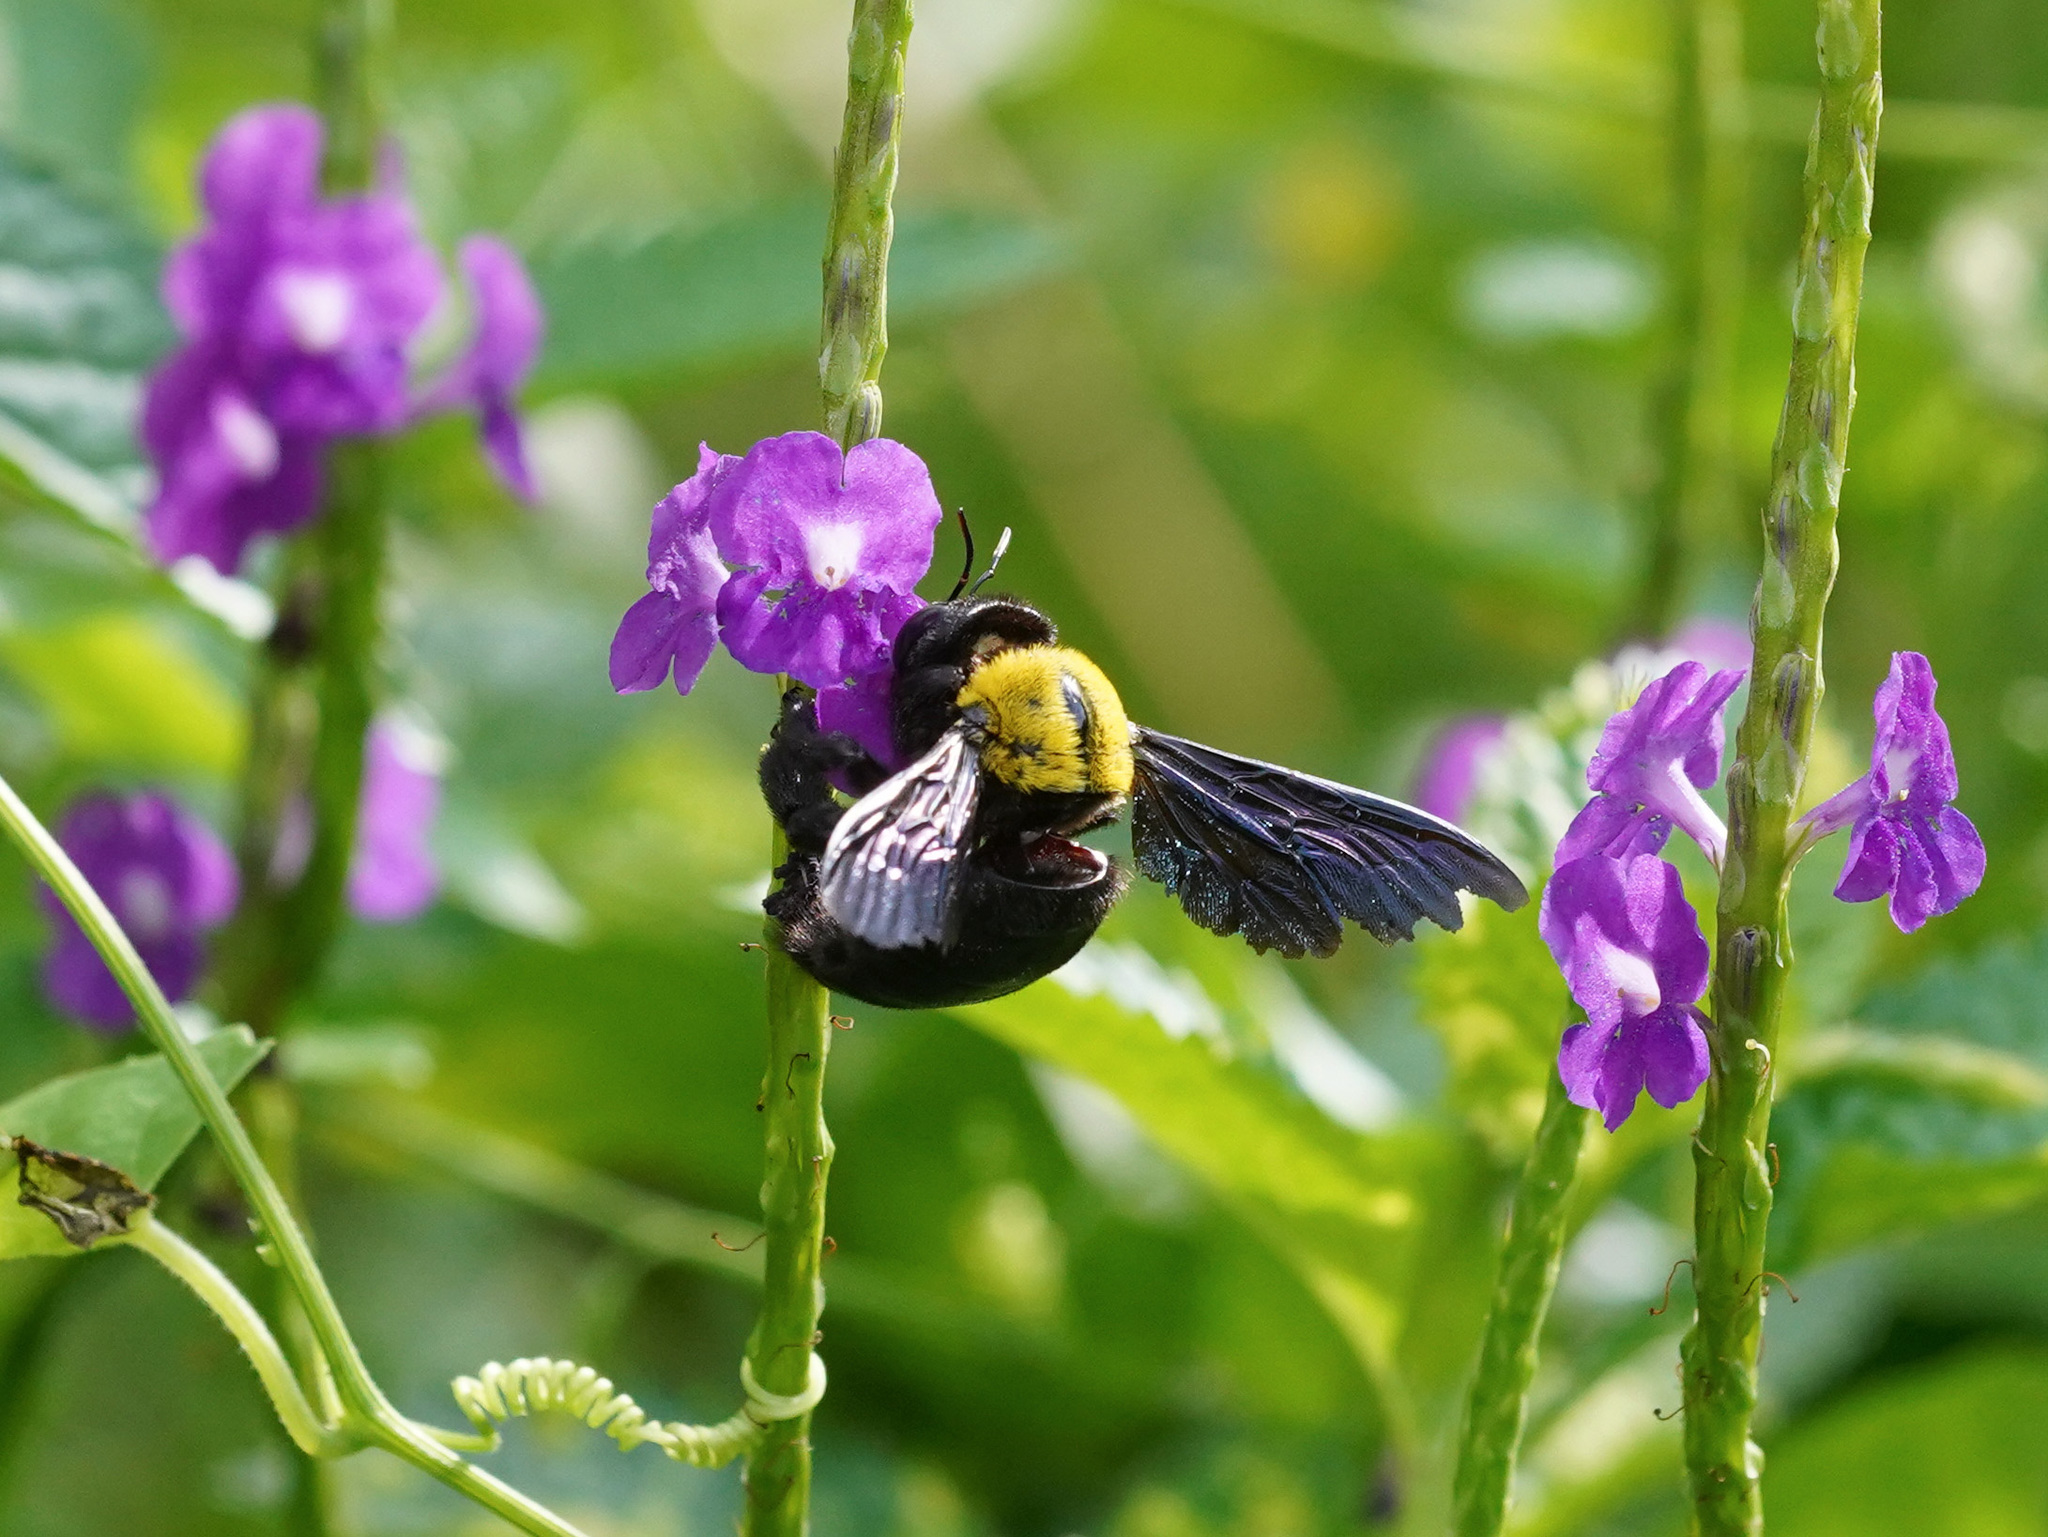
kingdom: Animalia
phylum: Arthropoda
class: Insecta
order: Hymenoptera
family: Apidae
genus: Xylocopa
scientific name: Xylocopa aestuans
